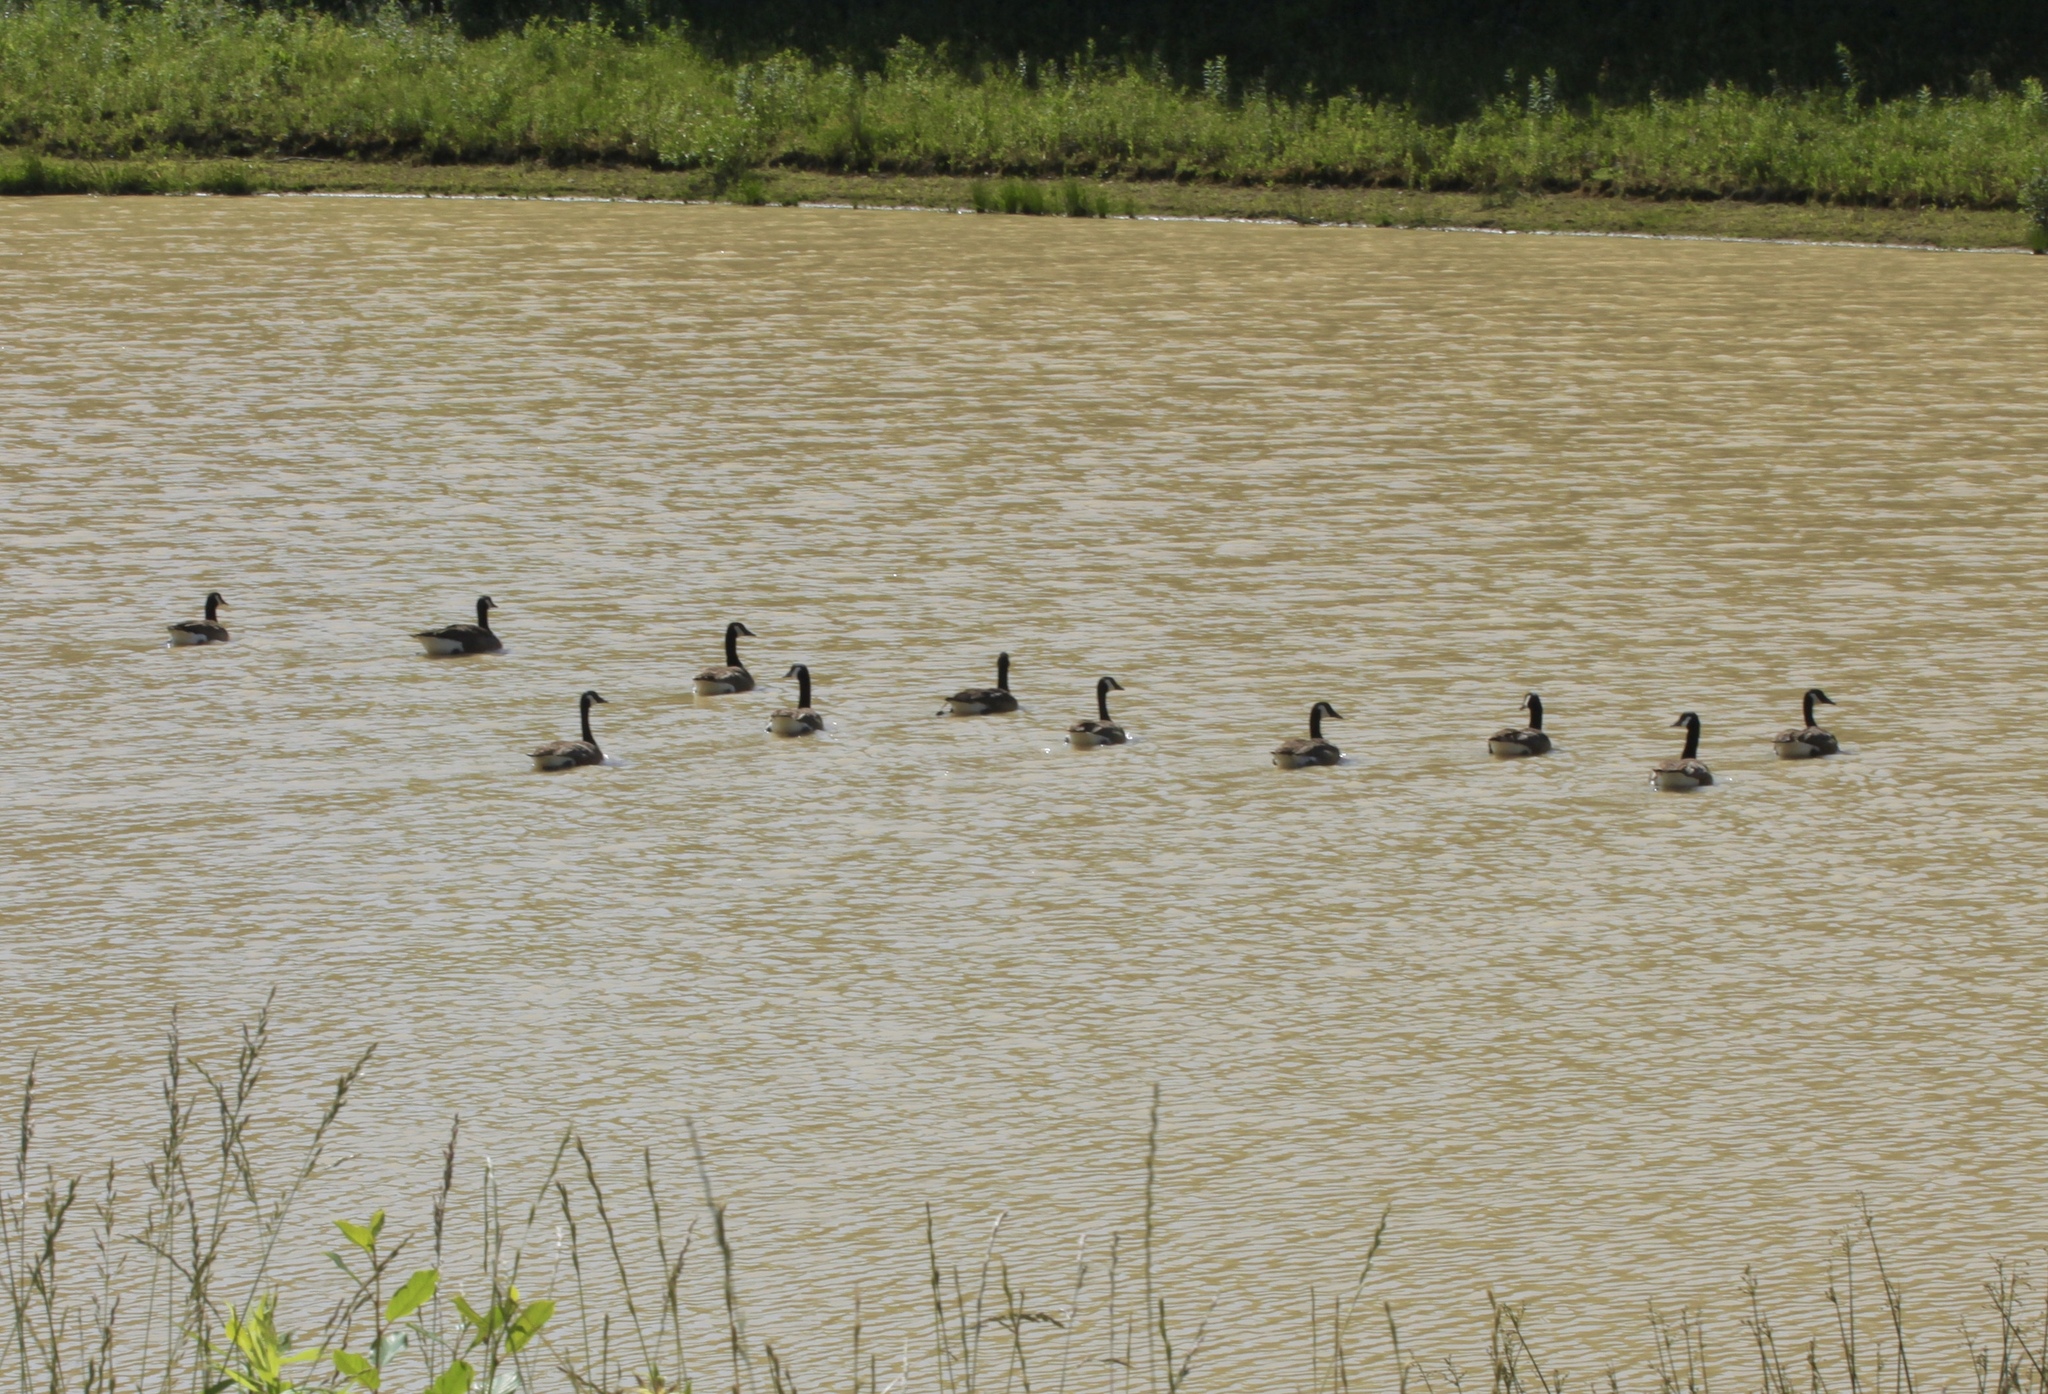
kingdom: Animalia
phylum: Chordata
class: Aves
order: Anseriformes
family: Anatidae
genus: Branta
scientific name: Branta canadensis
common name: Canada goose
